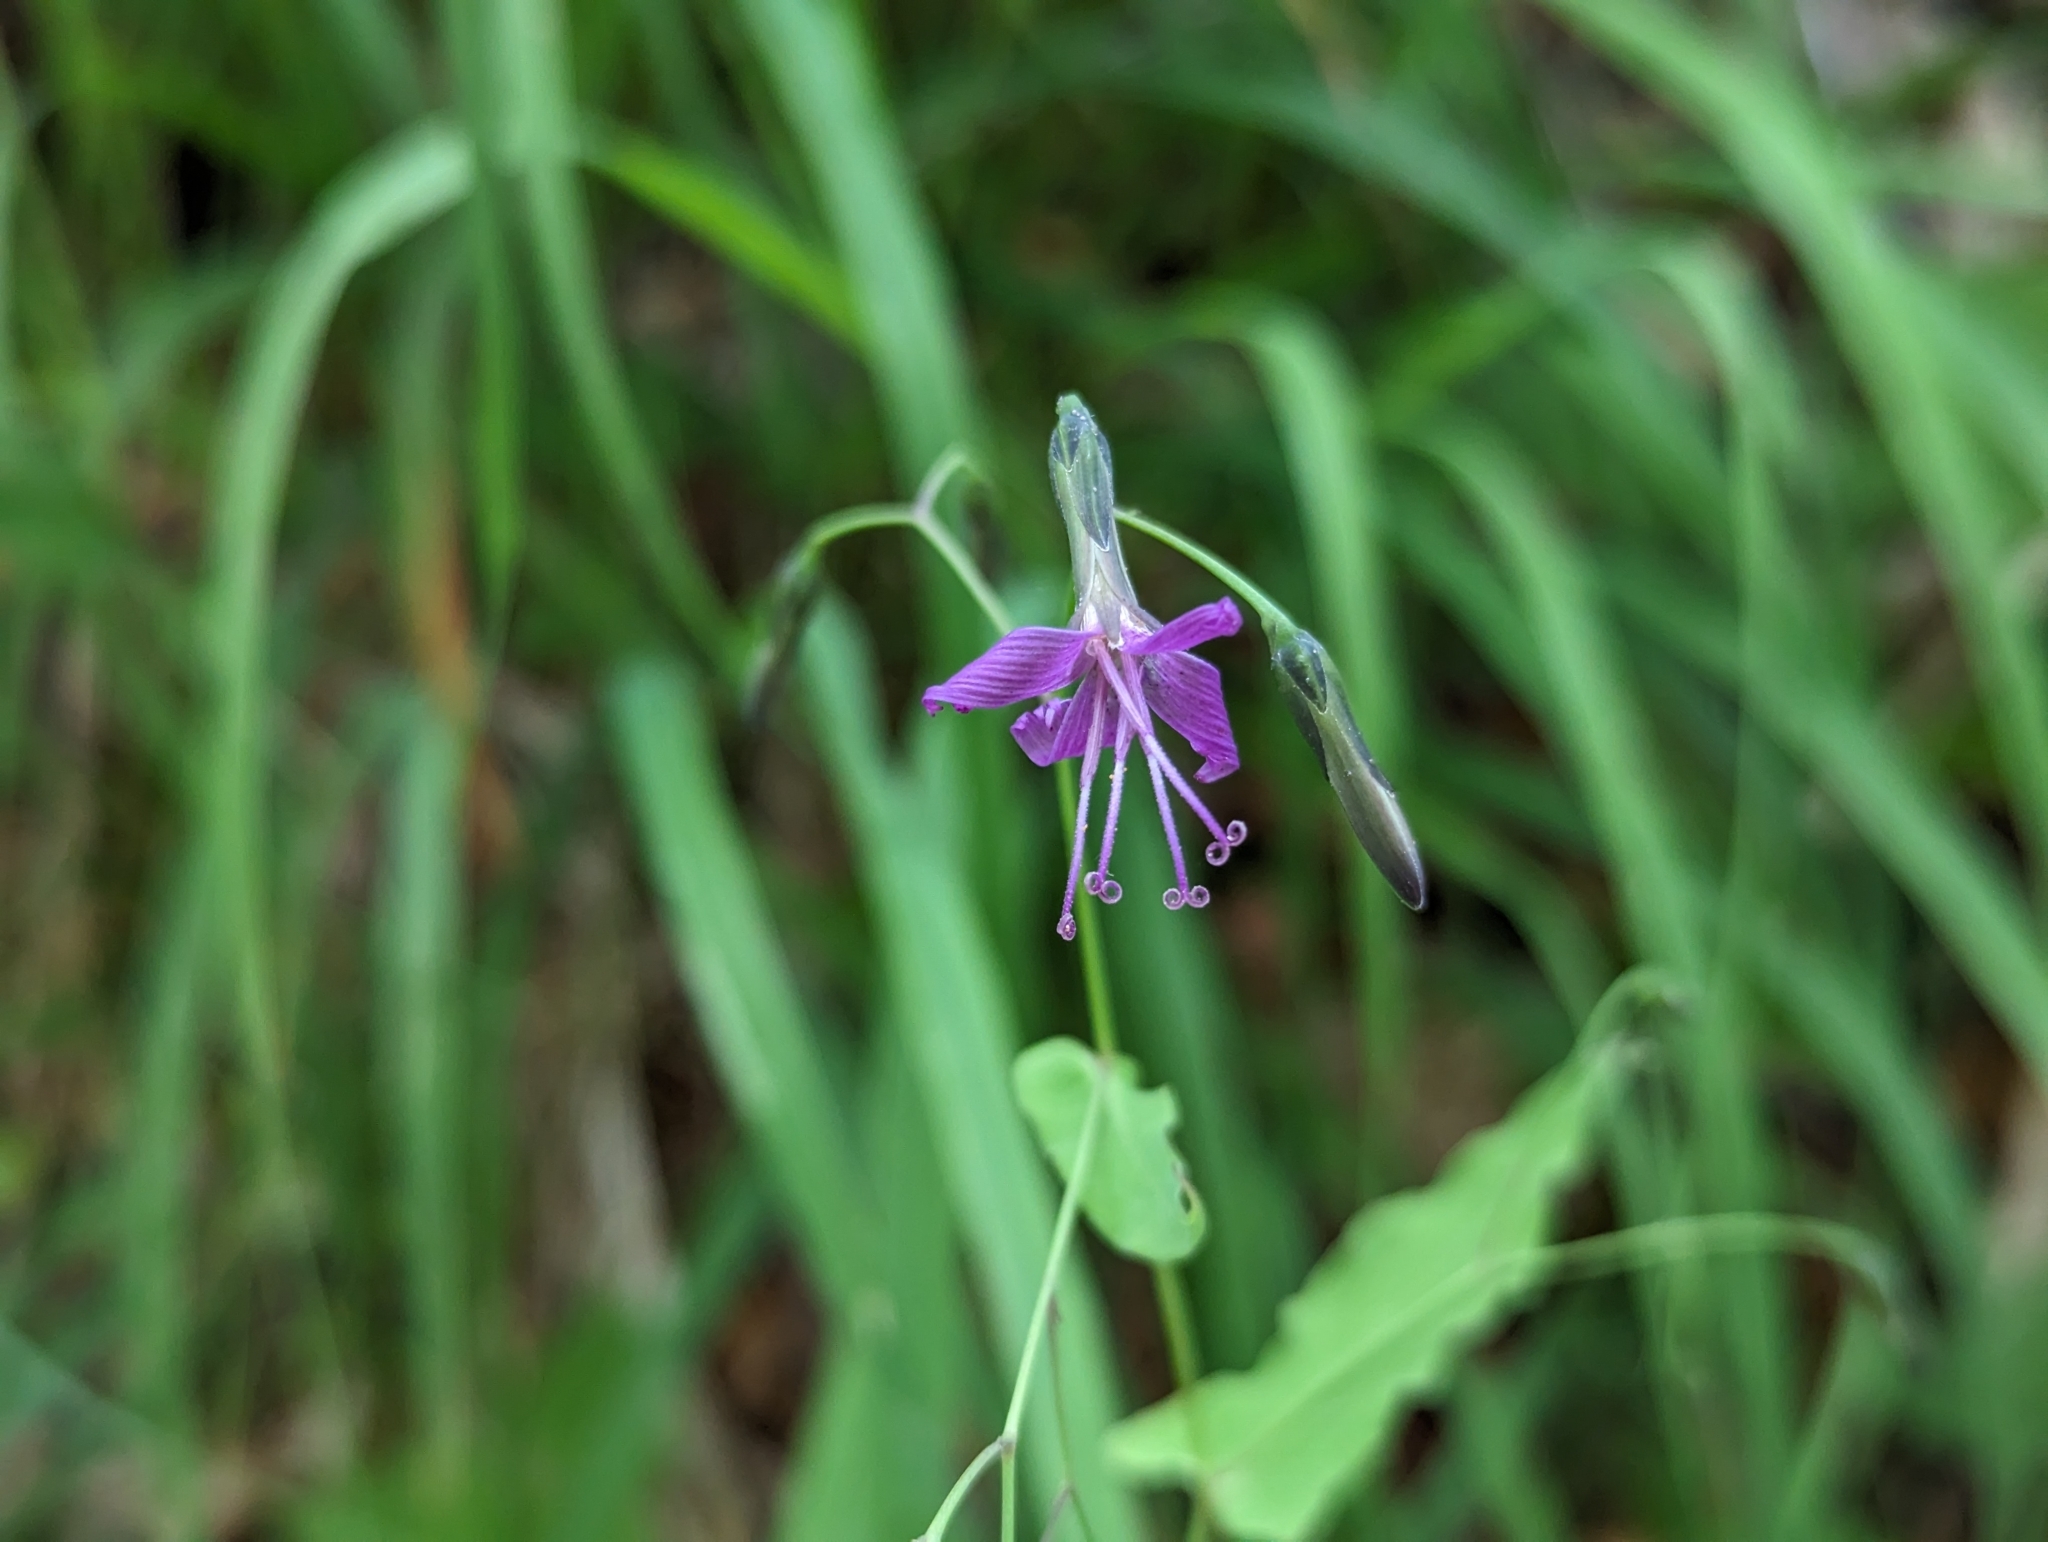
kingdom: Plantae
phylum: Tracheophyta
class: Magnoliopsida
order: Asterales
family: Asteraceae
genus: Prenanthes
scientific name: Prenanthes purpurea
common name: Purple lettuce
